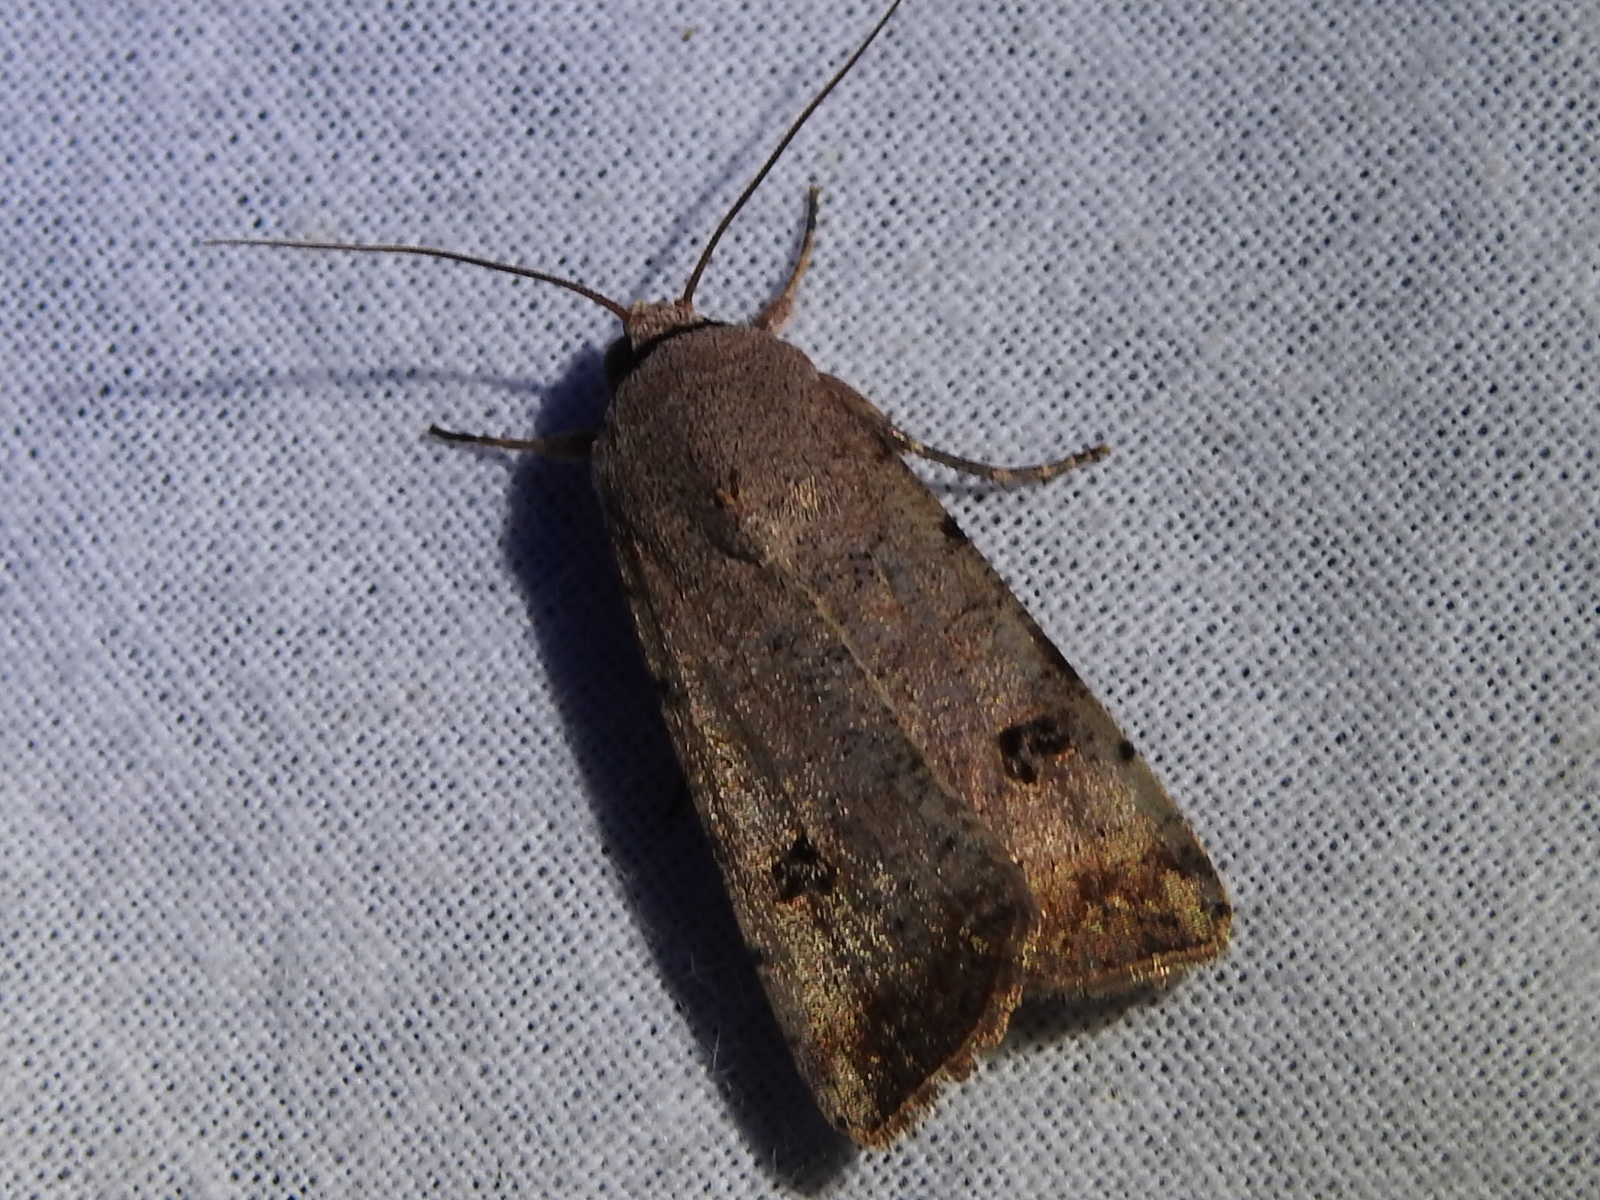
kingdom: Animalia
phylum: Arthropoda
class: Insecta
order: Lepidoptera
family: Noctuidae
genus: Anicla
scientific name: Anicla infecta
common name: Green cutworm
